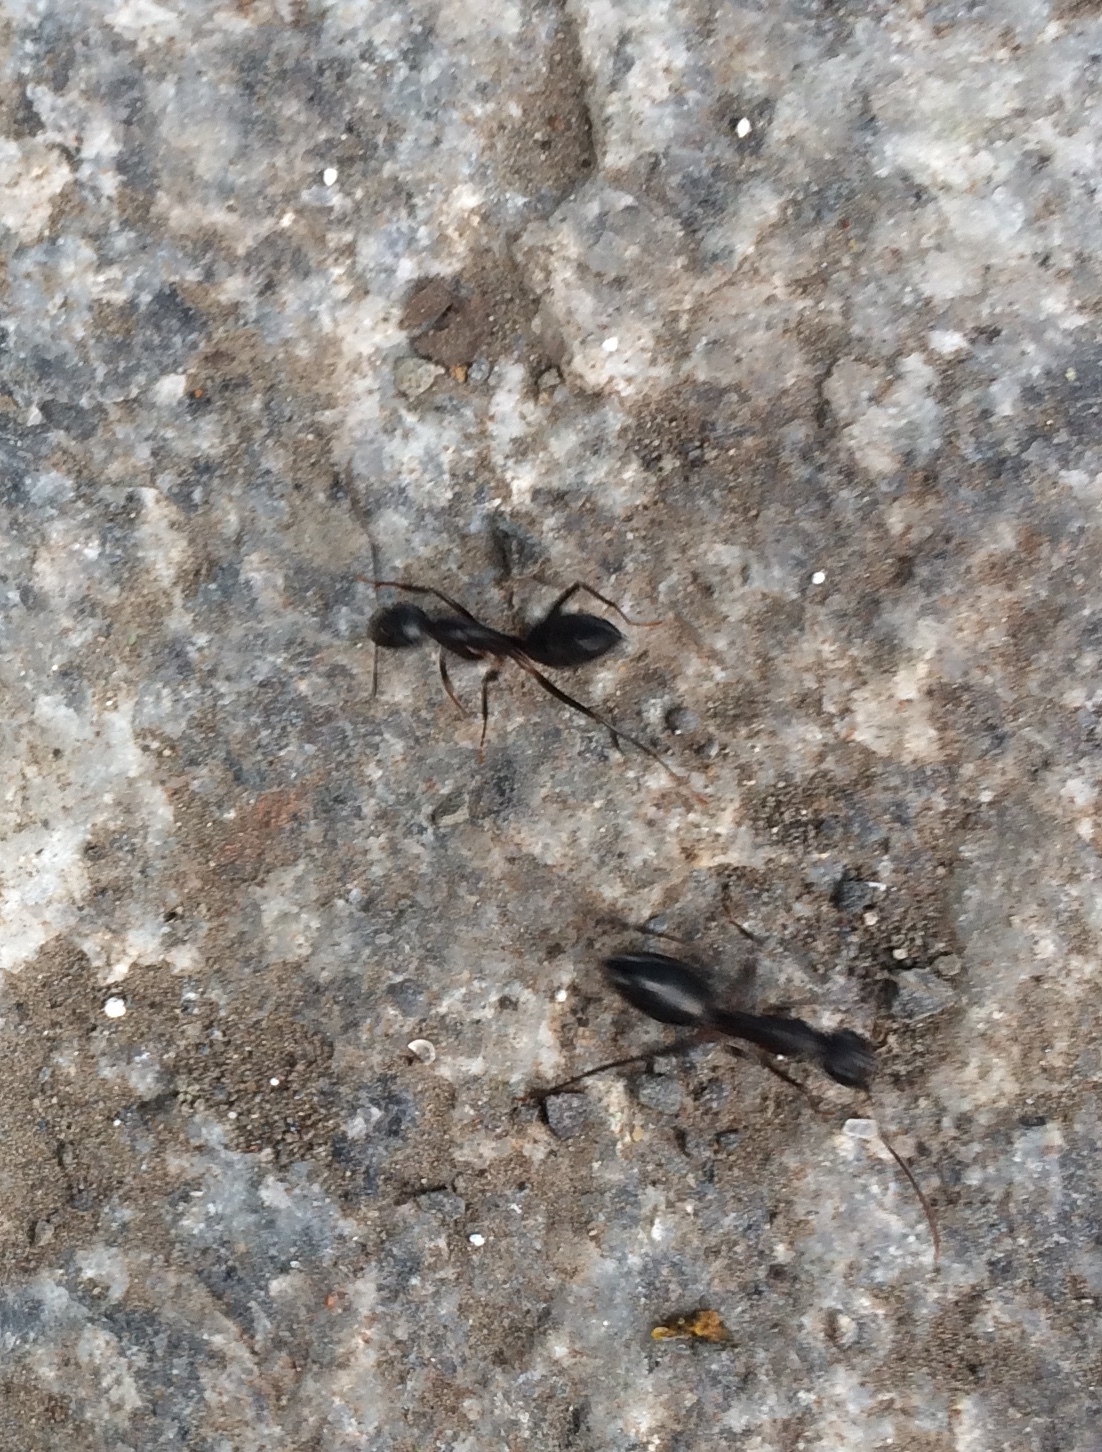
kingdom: Animalia
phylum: Arthropoda
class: Insecta
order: Hymenoptera
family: Formicidae
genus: Camponotus
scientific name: Camponotus compressus
